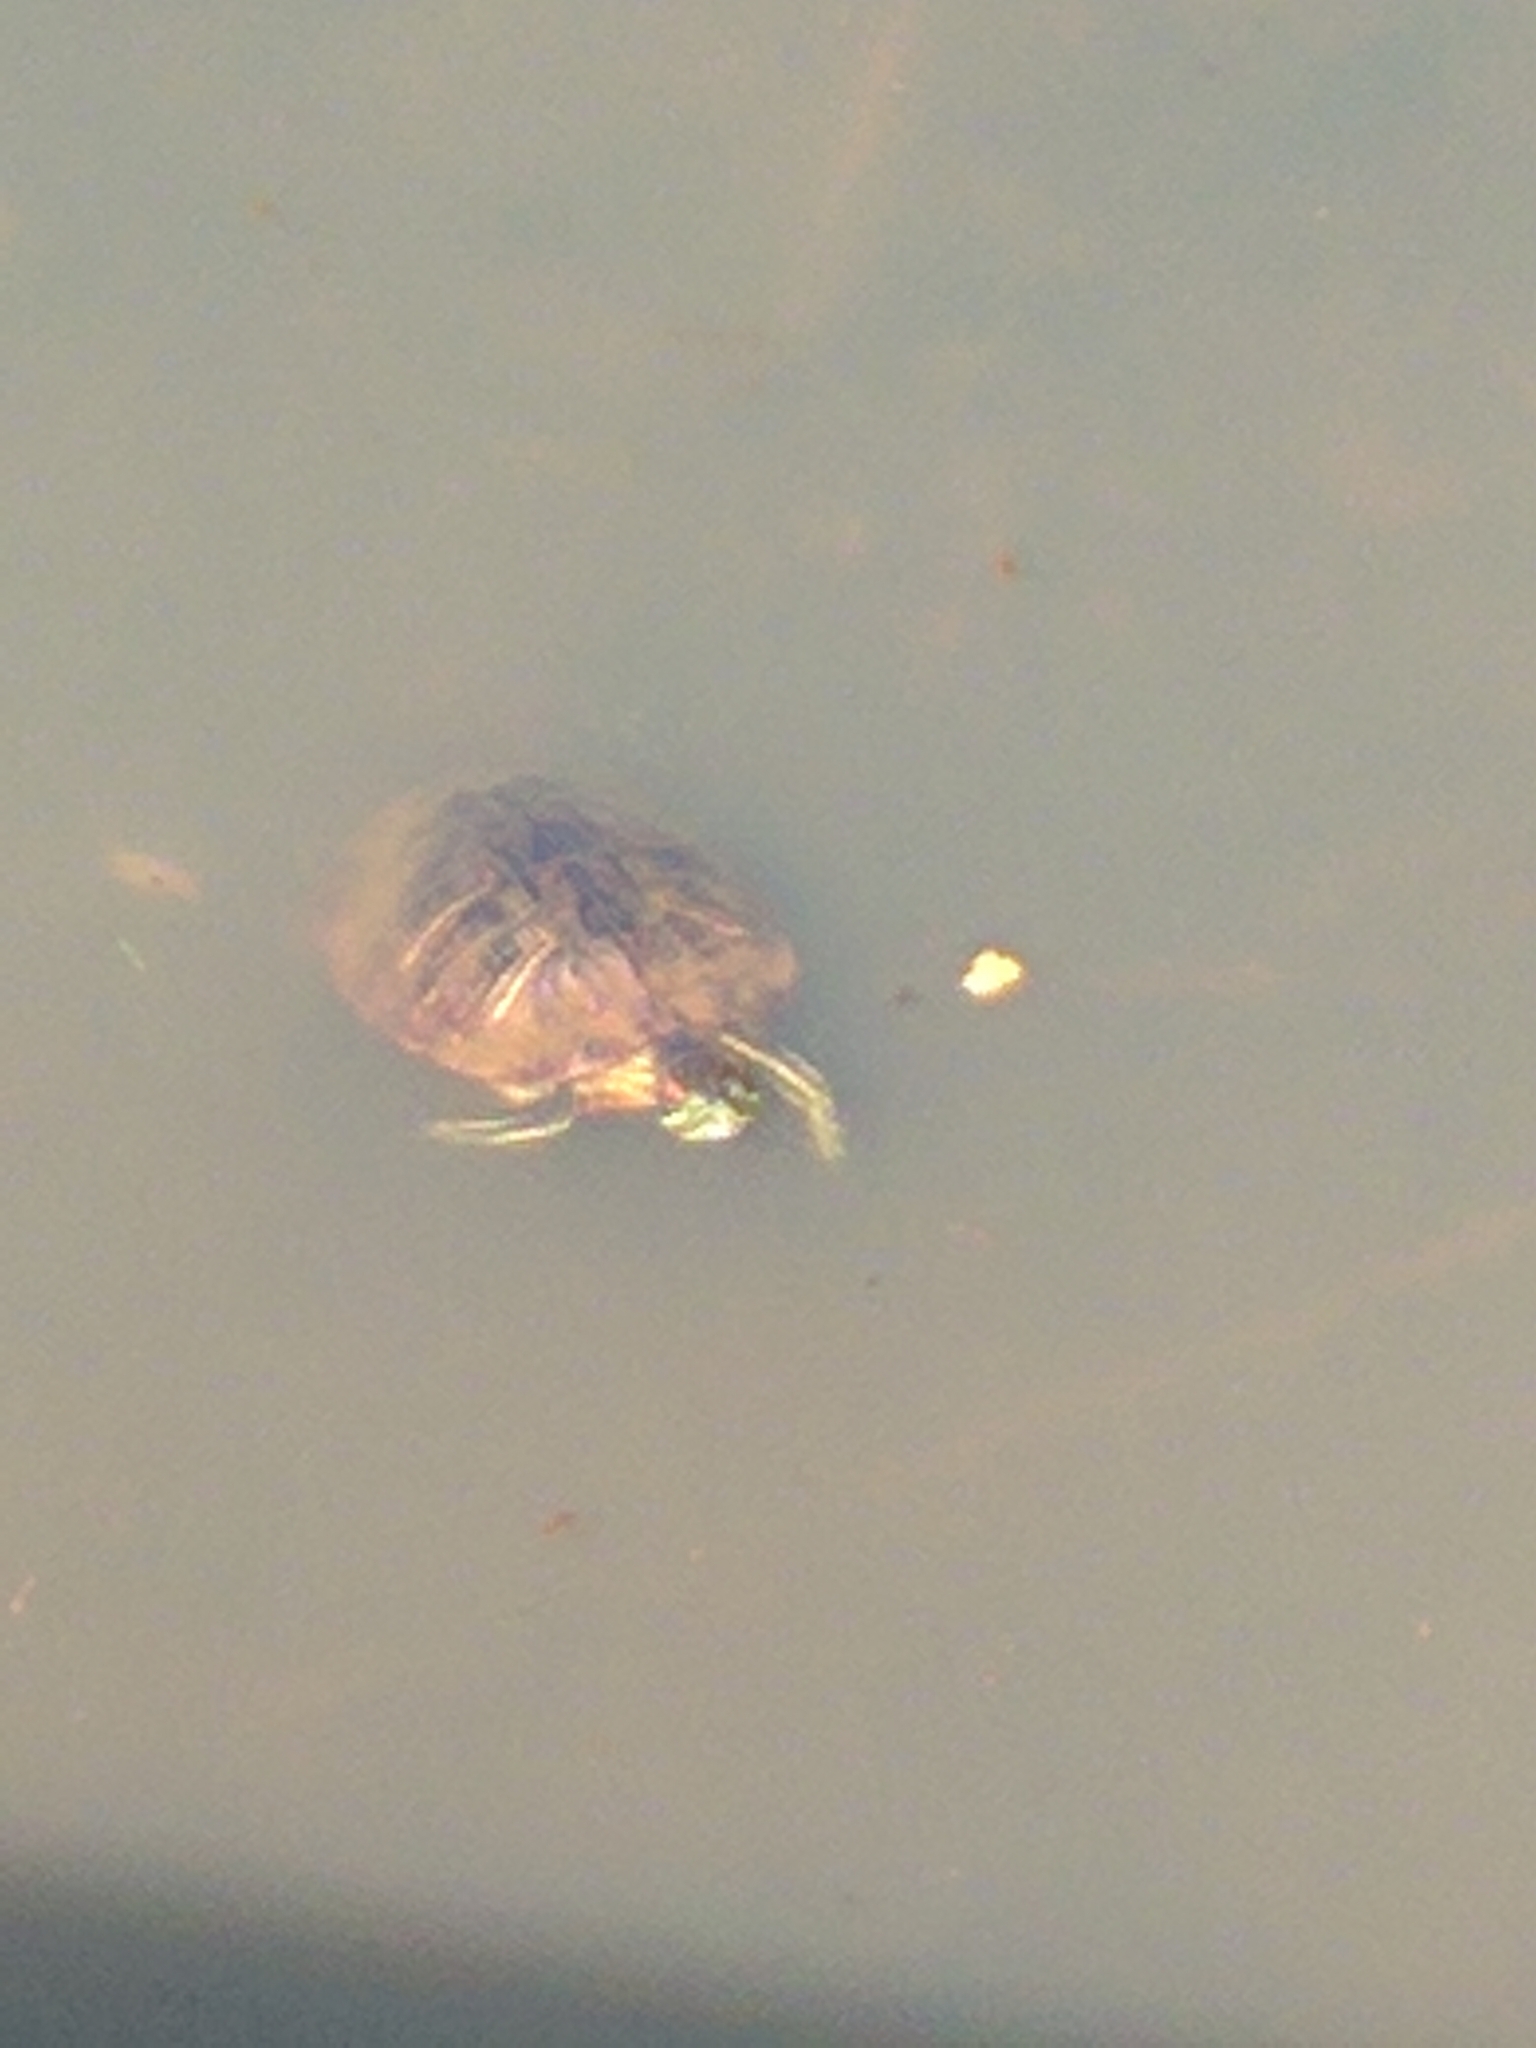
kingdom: Animalia
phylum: Chordata
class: Testudines
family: Emydidae
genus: Trachemys
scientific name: Trachemys scripta
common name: Slider
